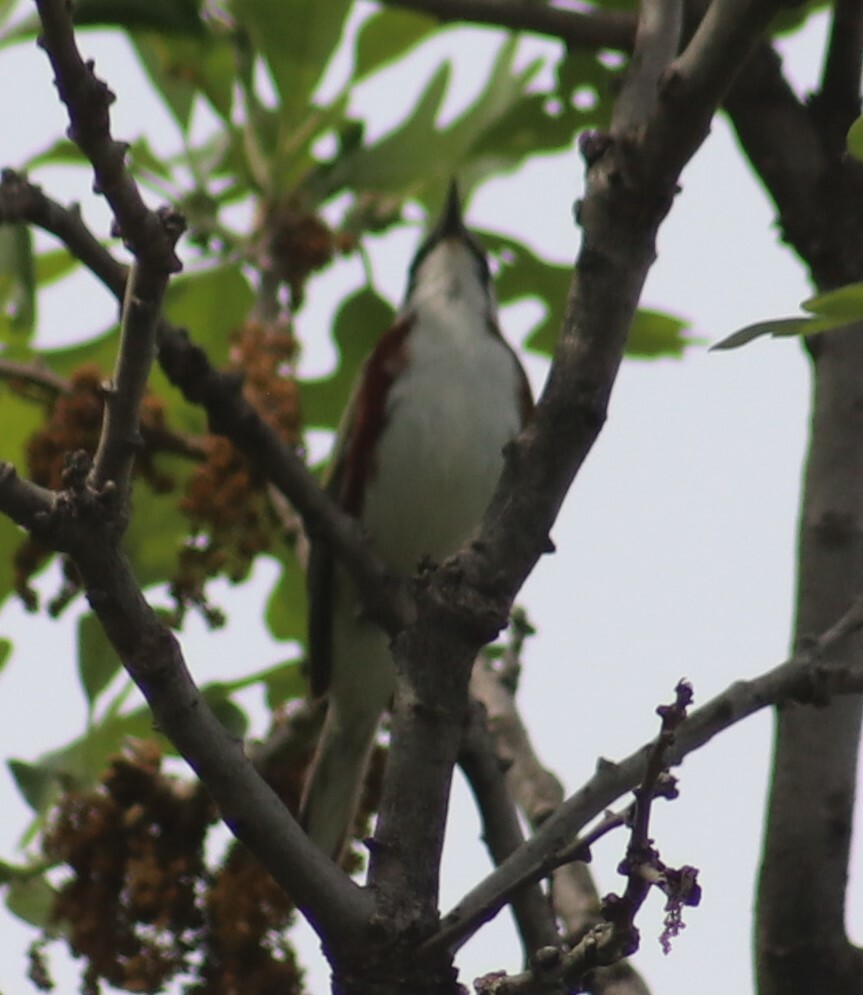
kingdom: Animalia
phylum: Chordata
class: Aves
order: Passeriformes
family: Parulidae
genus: Setophaga
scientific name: Setophaga pensylvanica
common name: Chestnut-sided warbler
